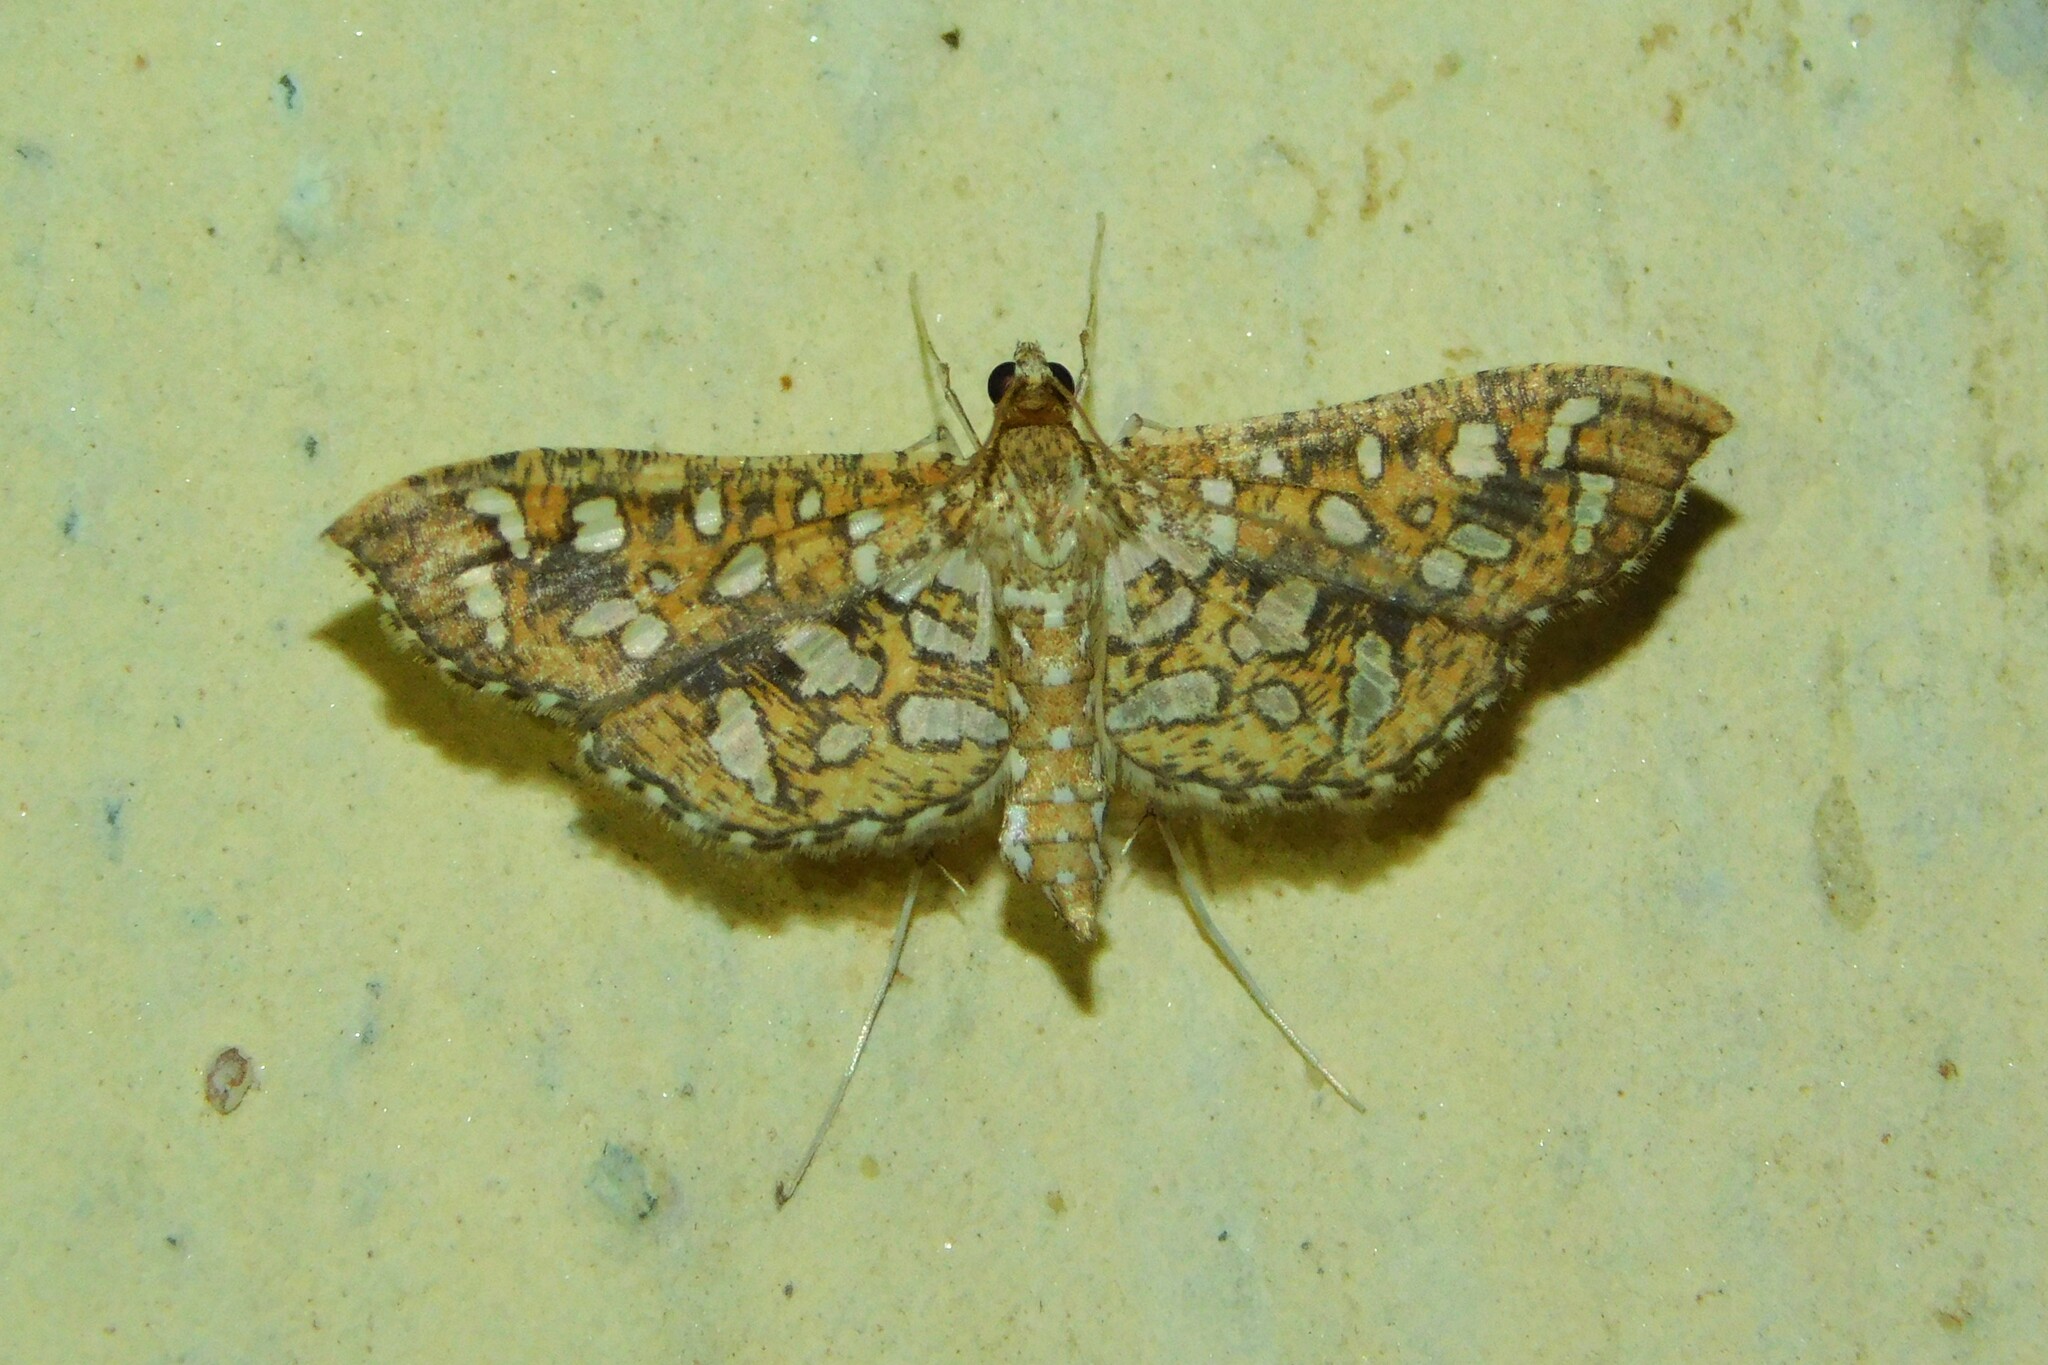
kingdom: Animalia
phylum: Arthropoda
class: Insecta
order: Lepidoptera
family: Crambidae
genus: Nausinoe
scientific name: Nausinoe geometralis
